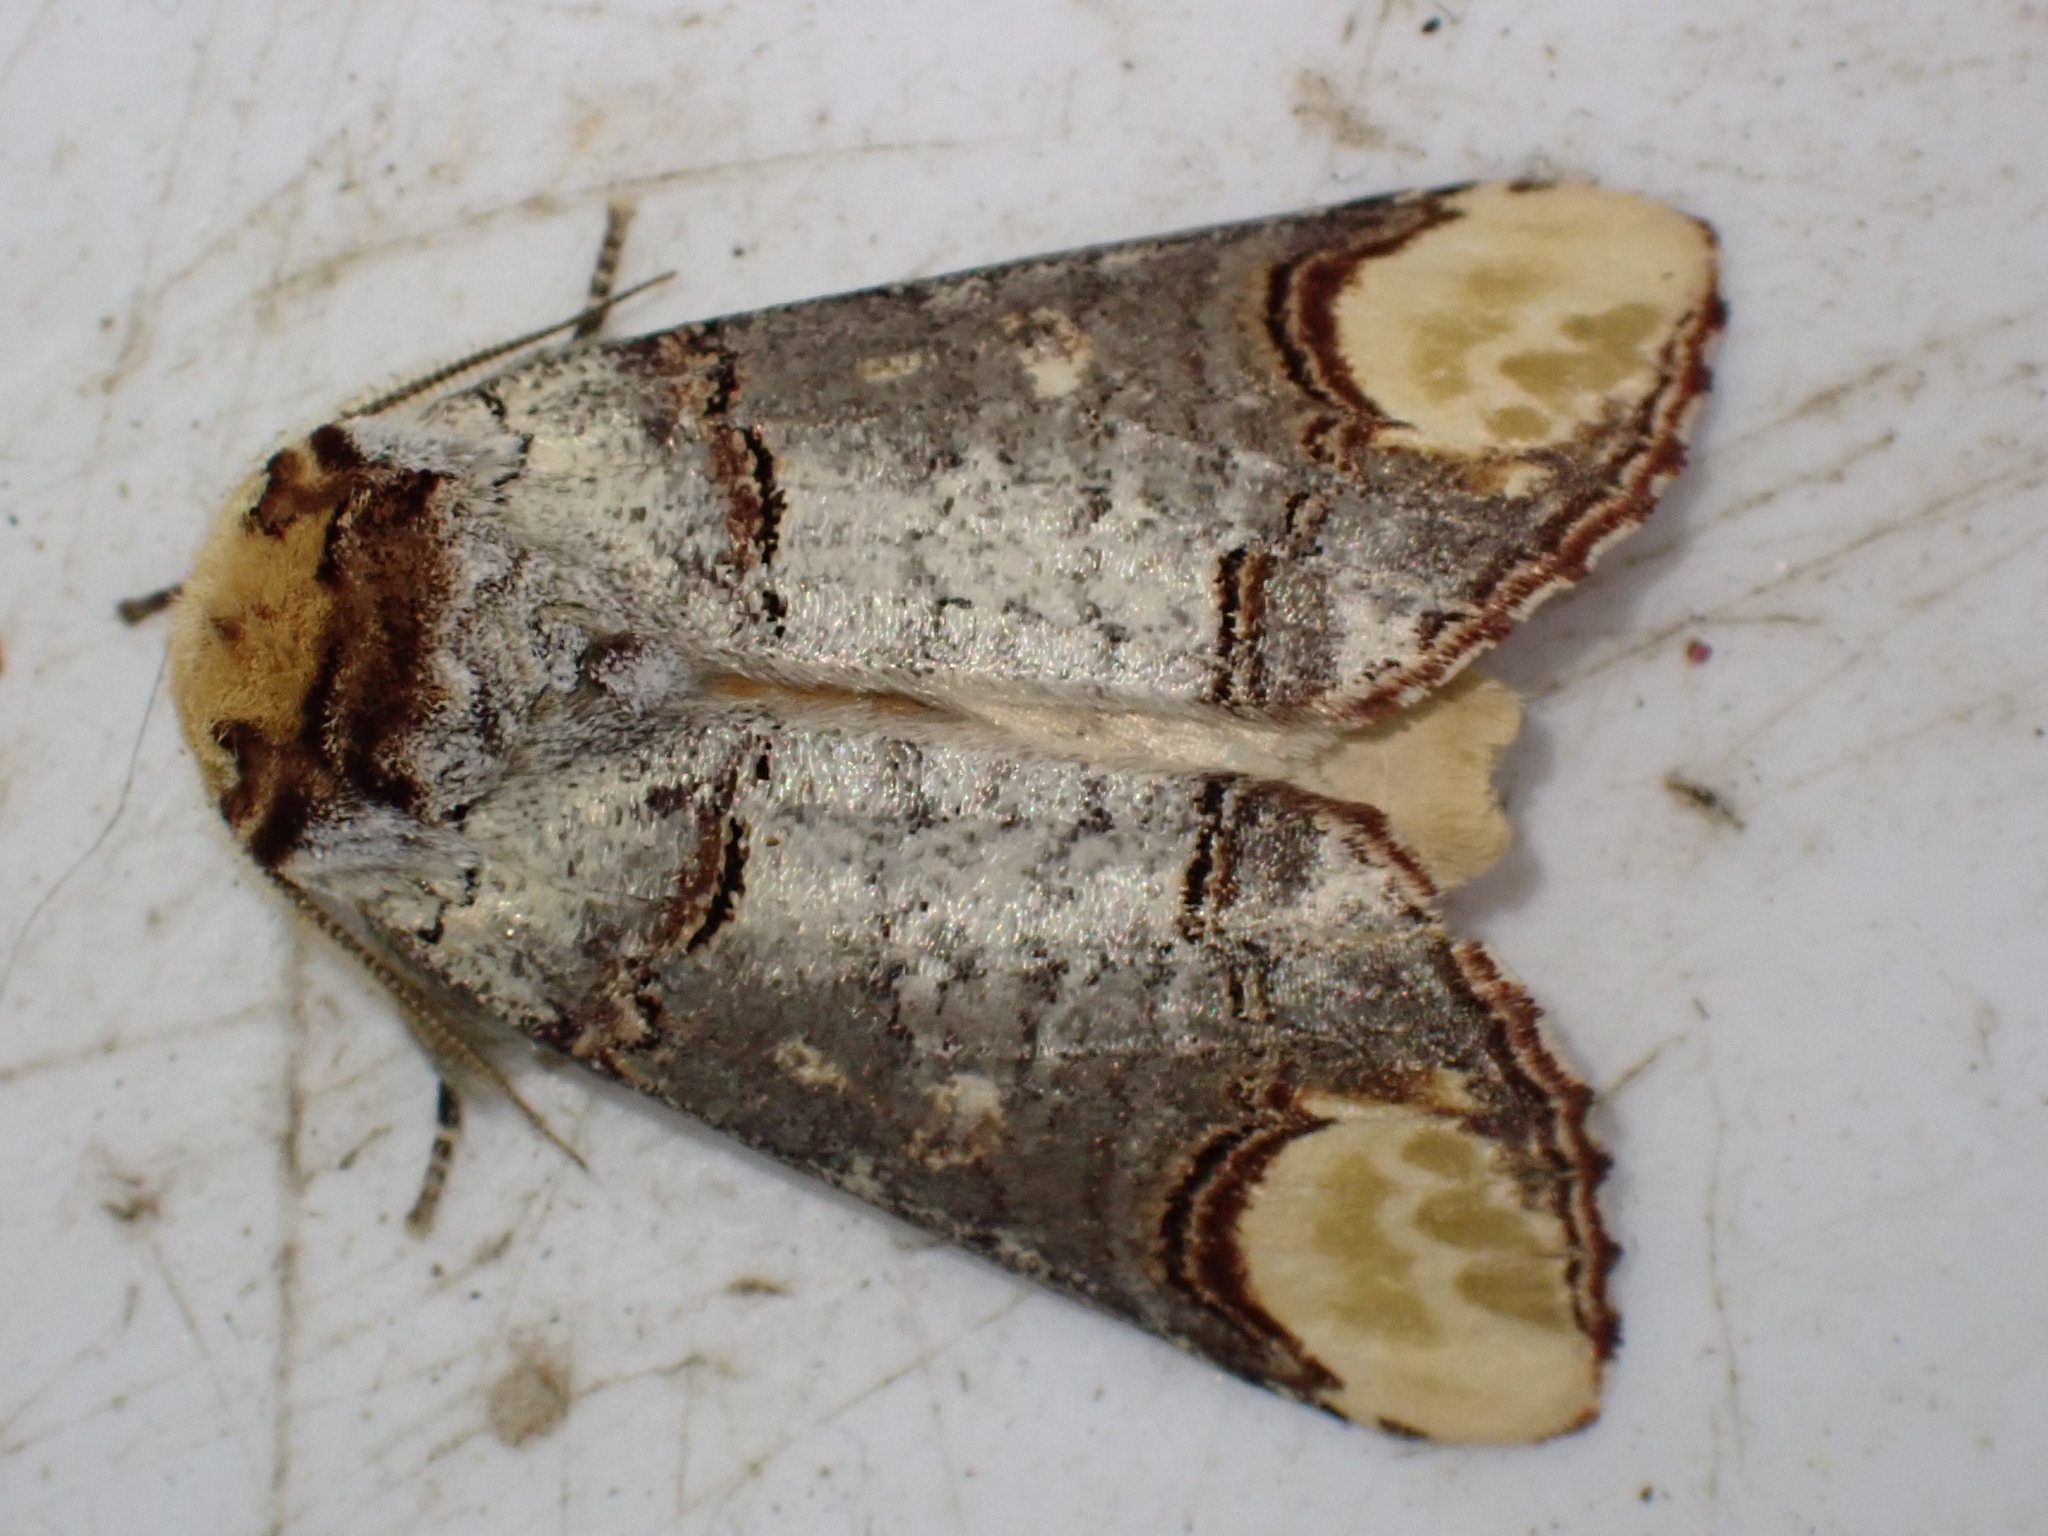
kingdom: Animalia
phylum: Arthropoda
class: Insecta
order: Lepidoptera
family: Notodontidae
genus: Phalera
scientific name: Phalera bucephala
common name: Buff-tip
